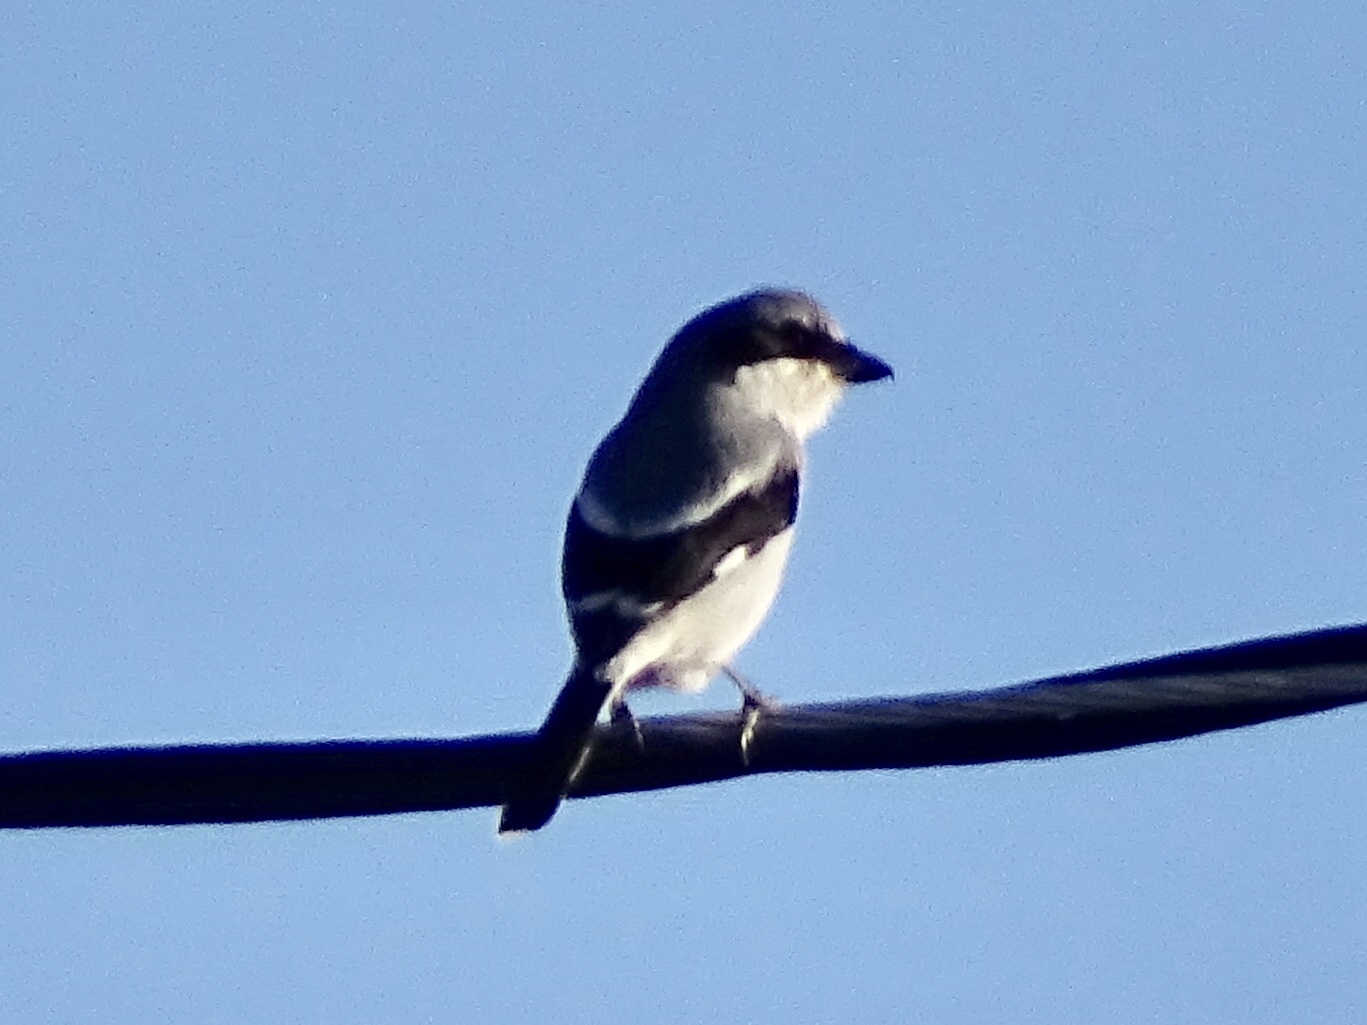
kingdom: Animalia
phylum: Chordata
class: Aves
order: Passeriformes
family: Laniidae
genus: Lanius
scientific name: Lanius ludovicianus
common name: Loggerhead shrike
